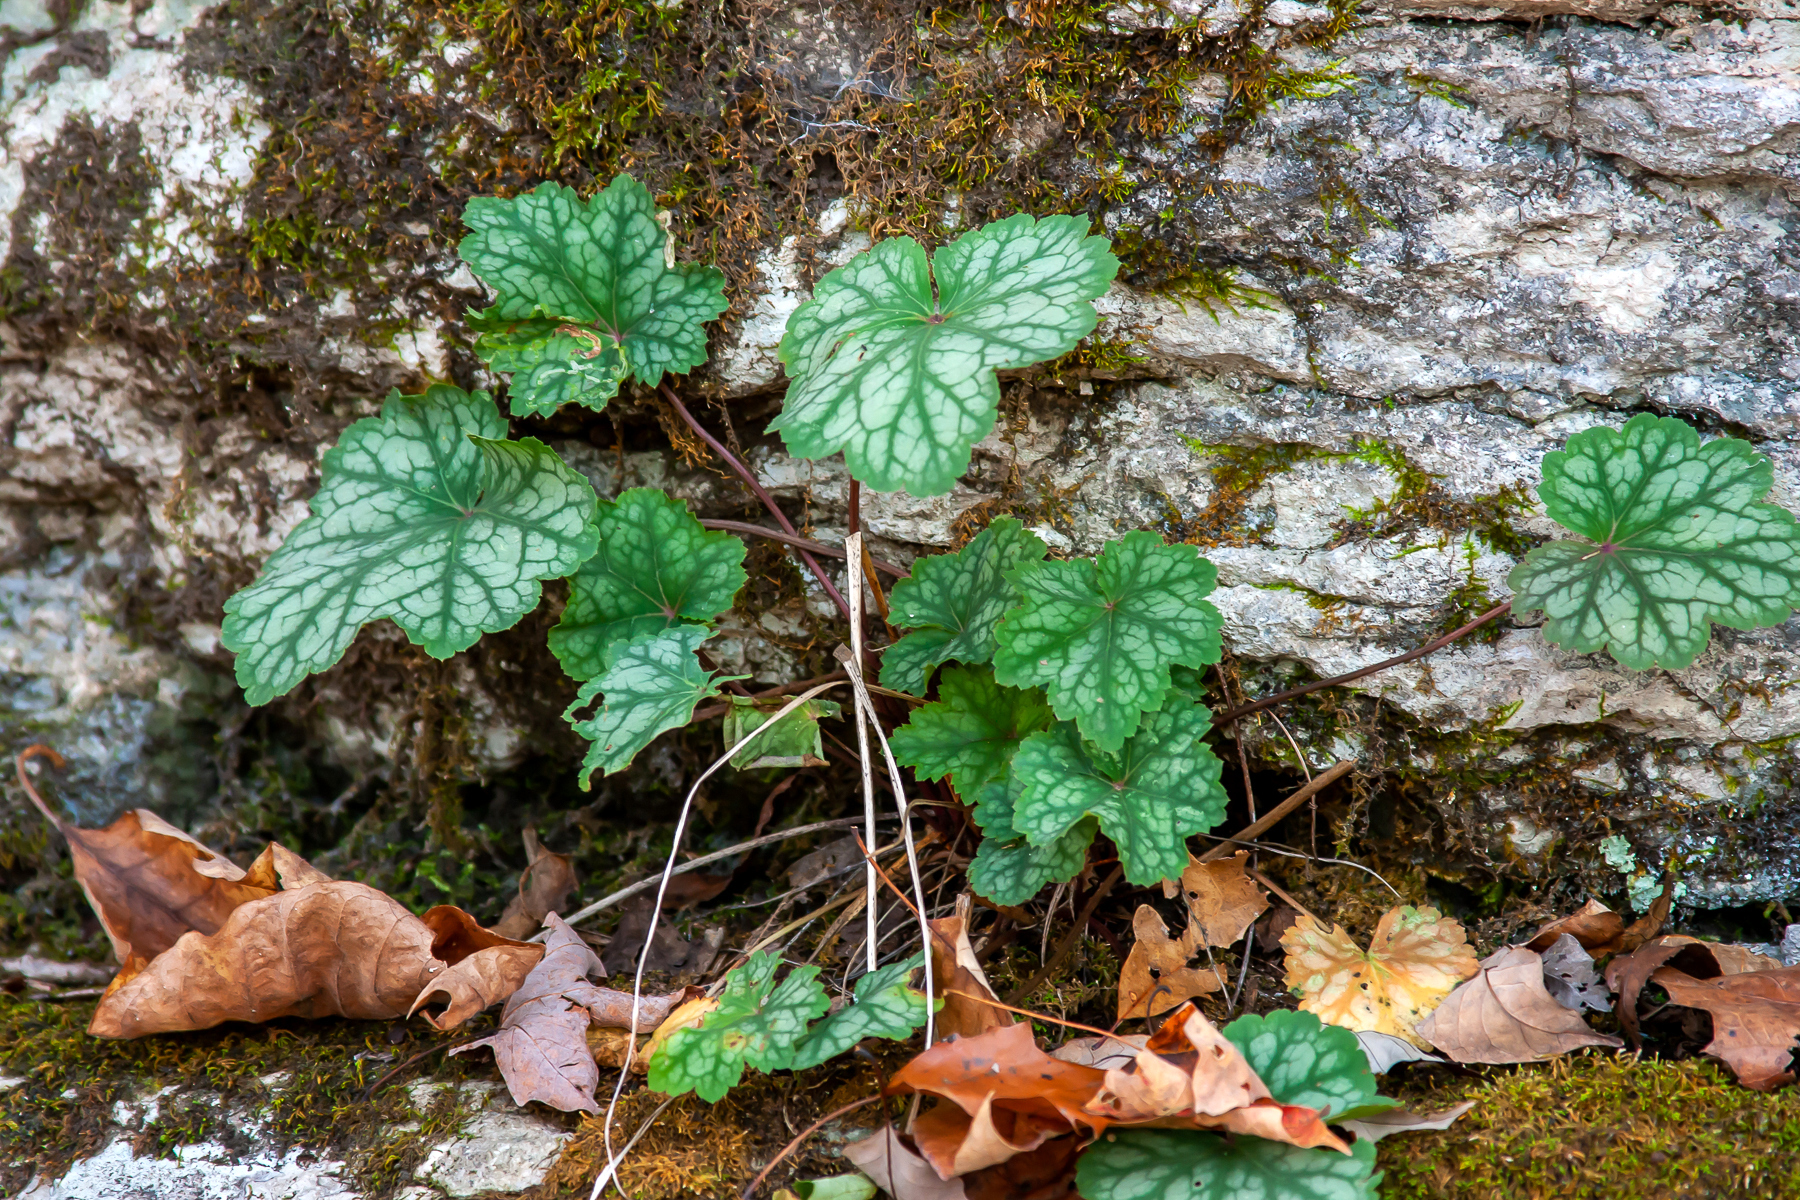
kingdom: Plantae
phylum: Tracheophyta
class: Magnoliopsida
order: Saxifragales
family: Saxifragaceae
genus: Heuchera
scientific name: Heuchera americana
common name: Alumroot
